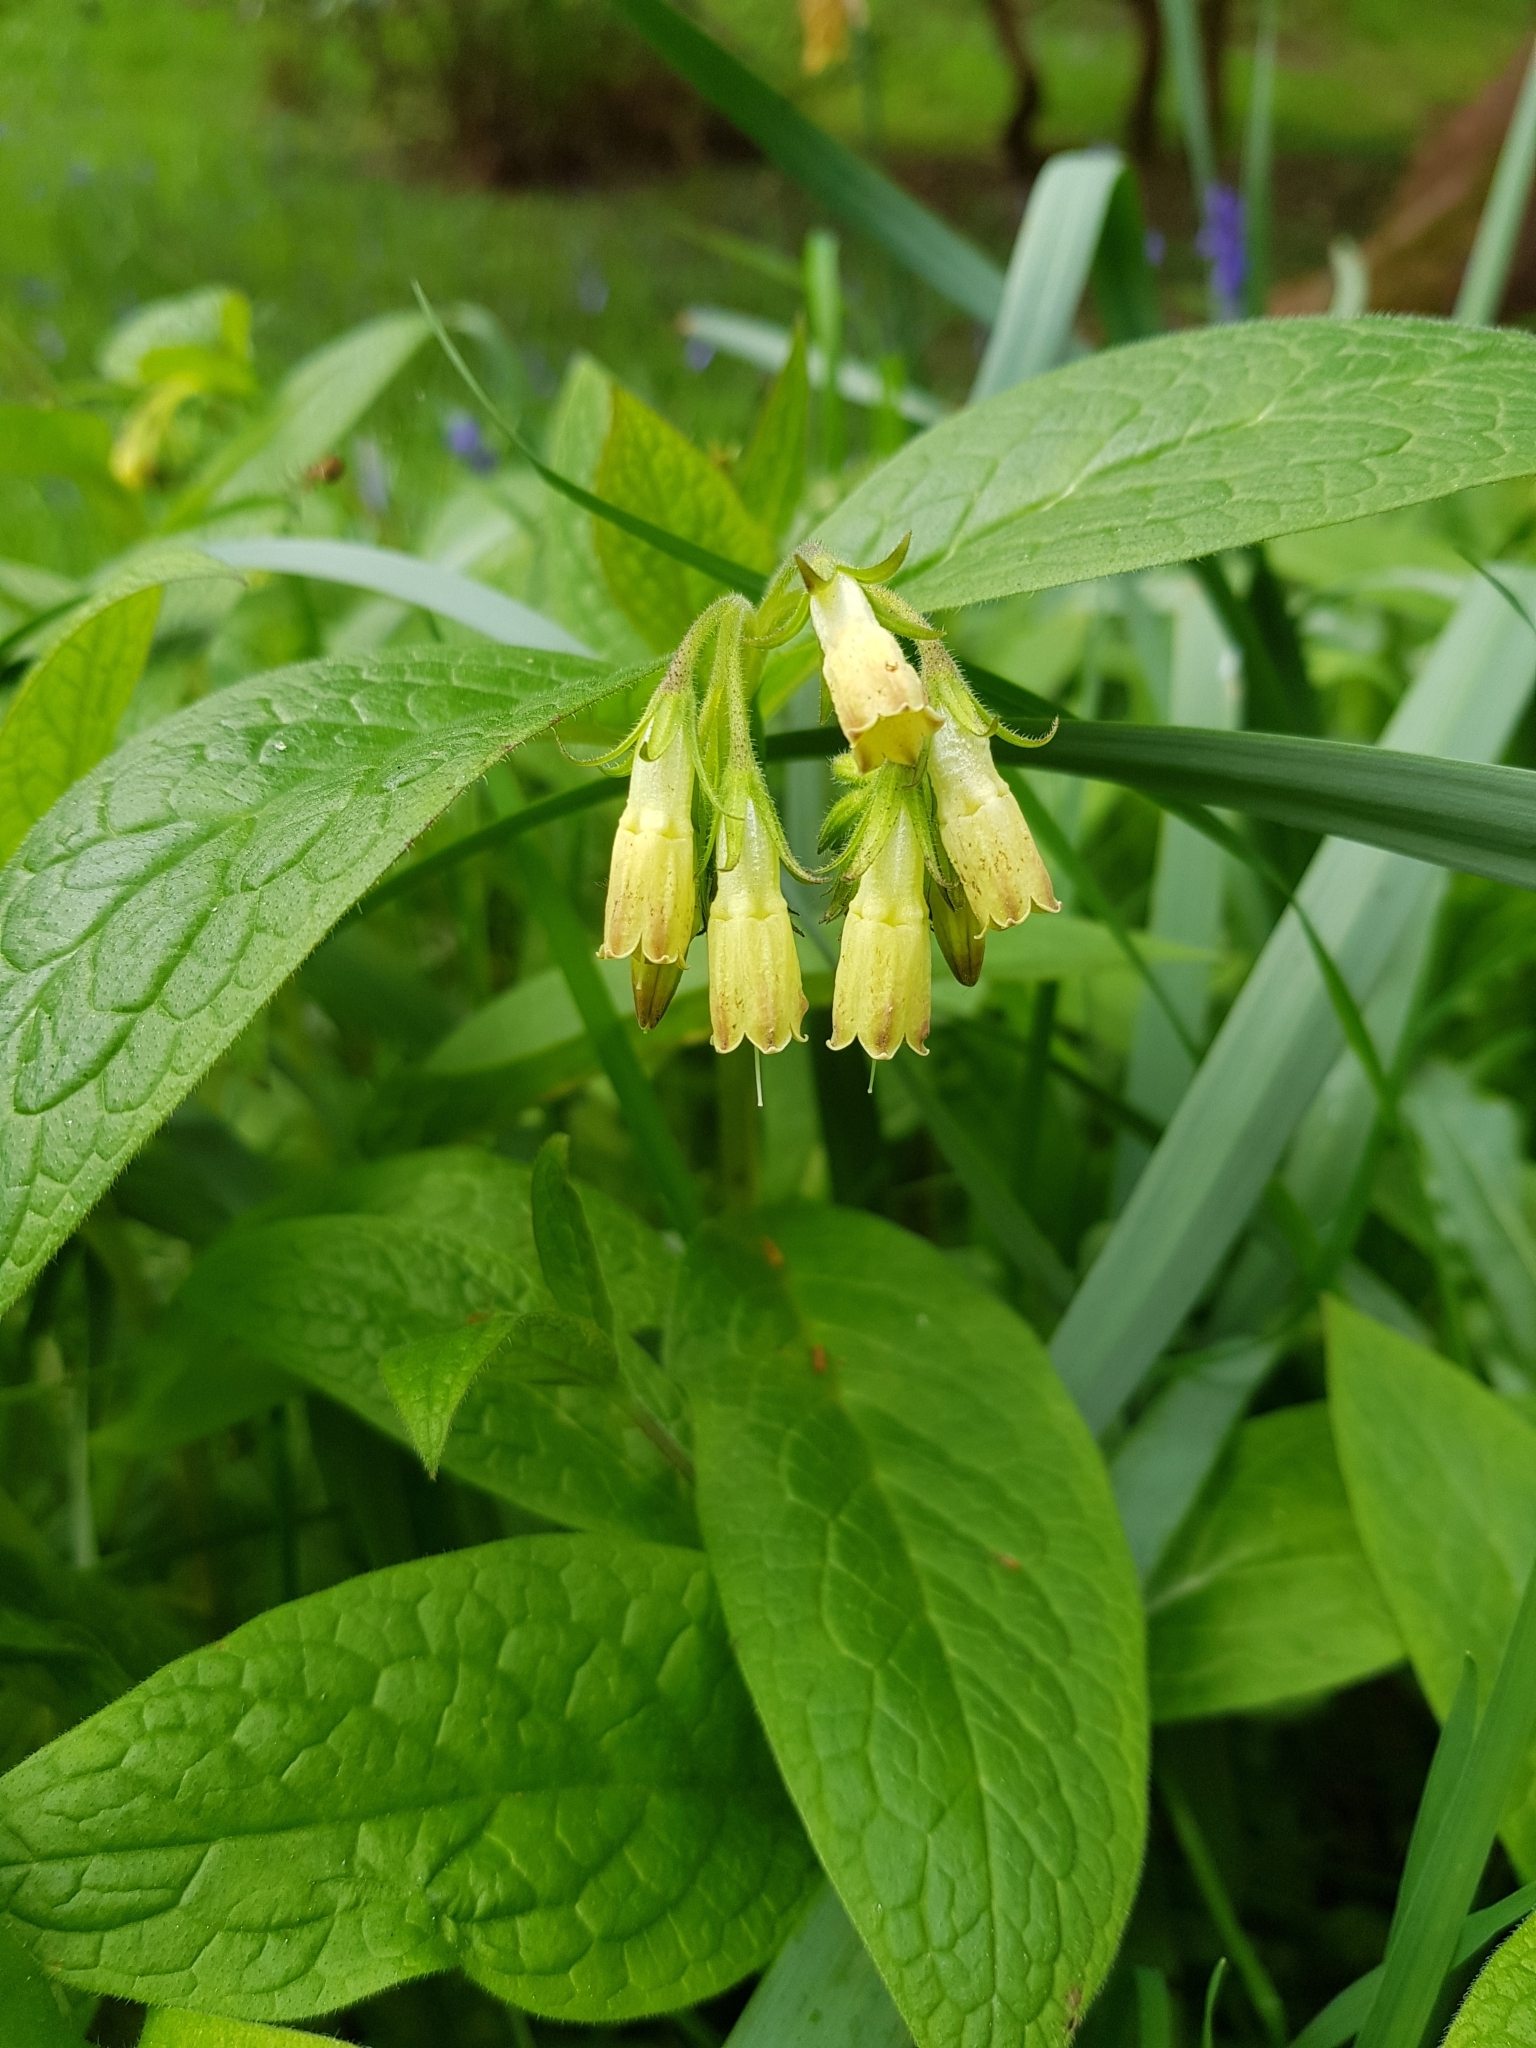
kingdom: Plantae
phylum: Tracheophyta
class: Magnoliopsida
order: Boraginales
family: Boraginaceae
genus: Symphytum
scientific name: Symphytum tuberosum
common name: Tuberous comfrey
